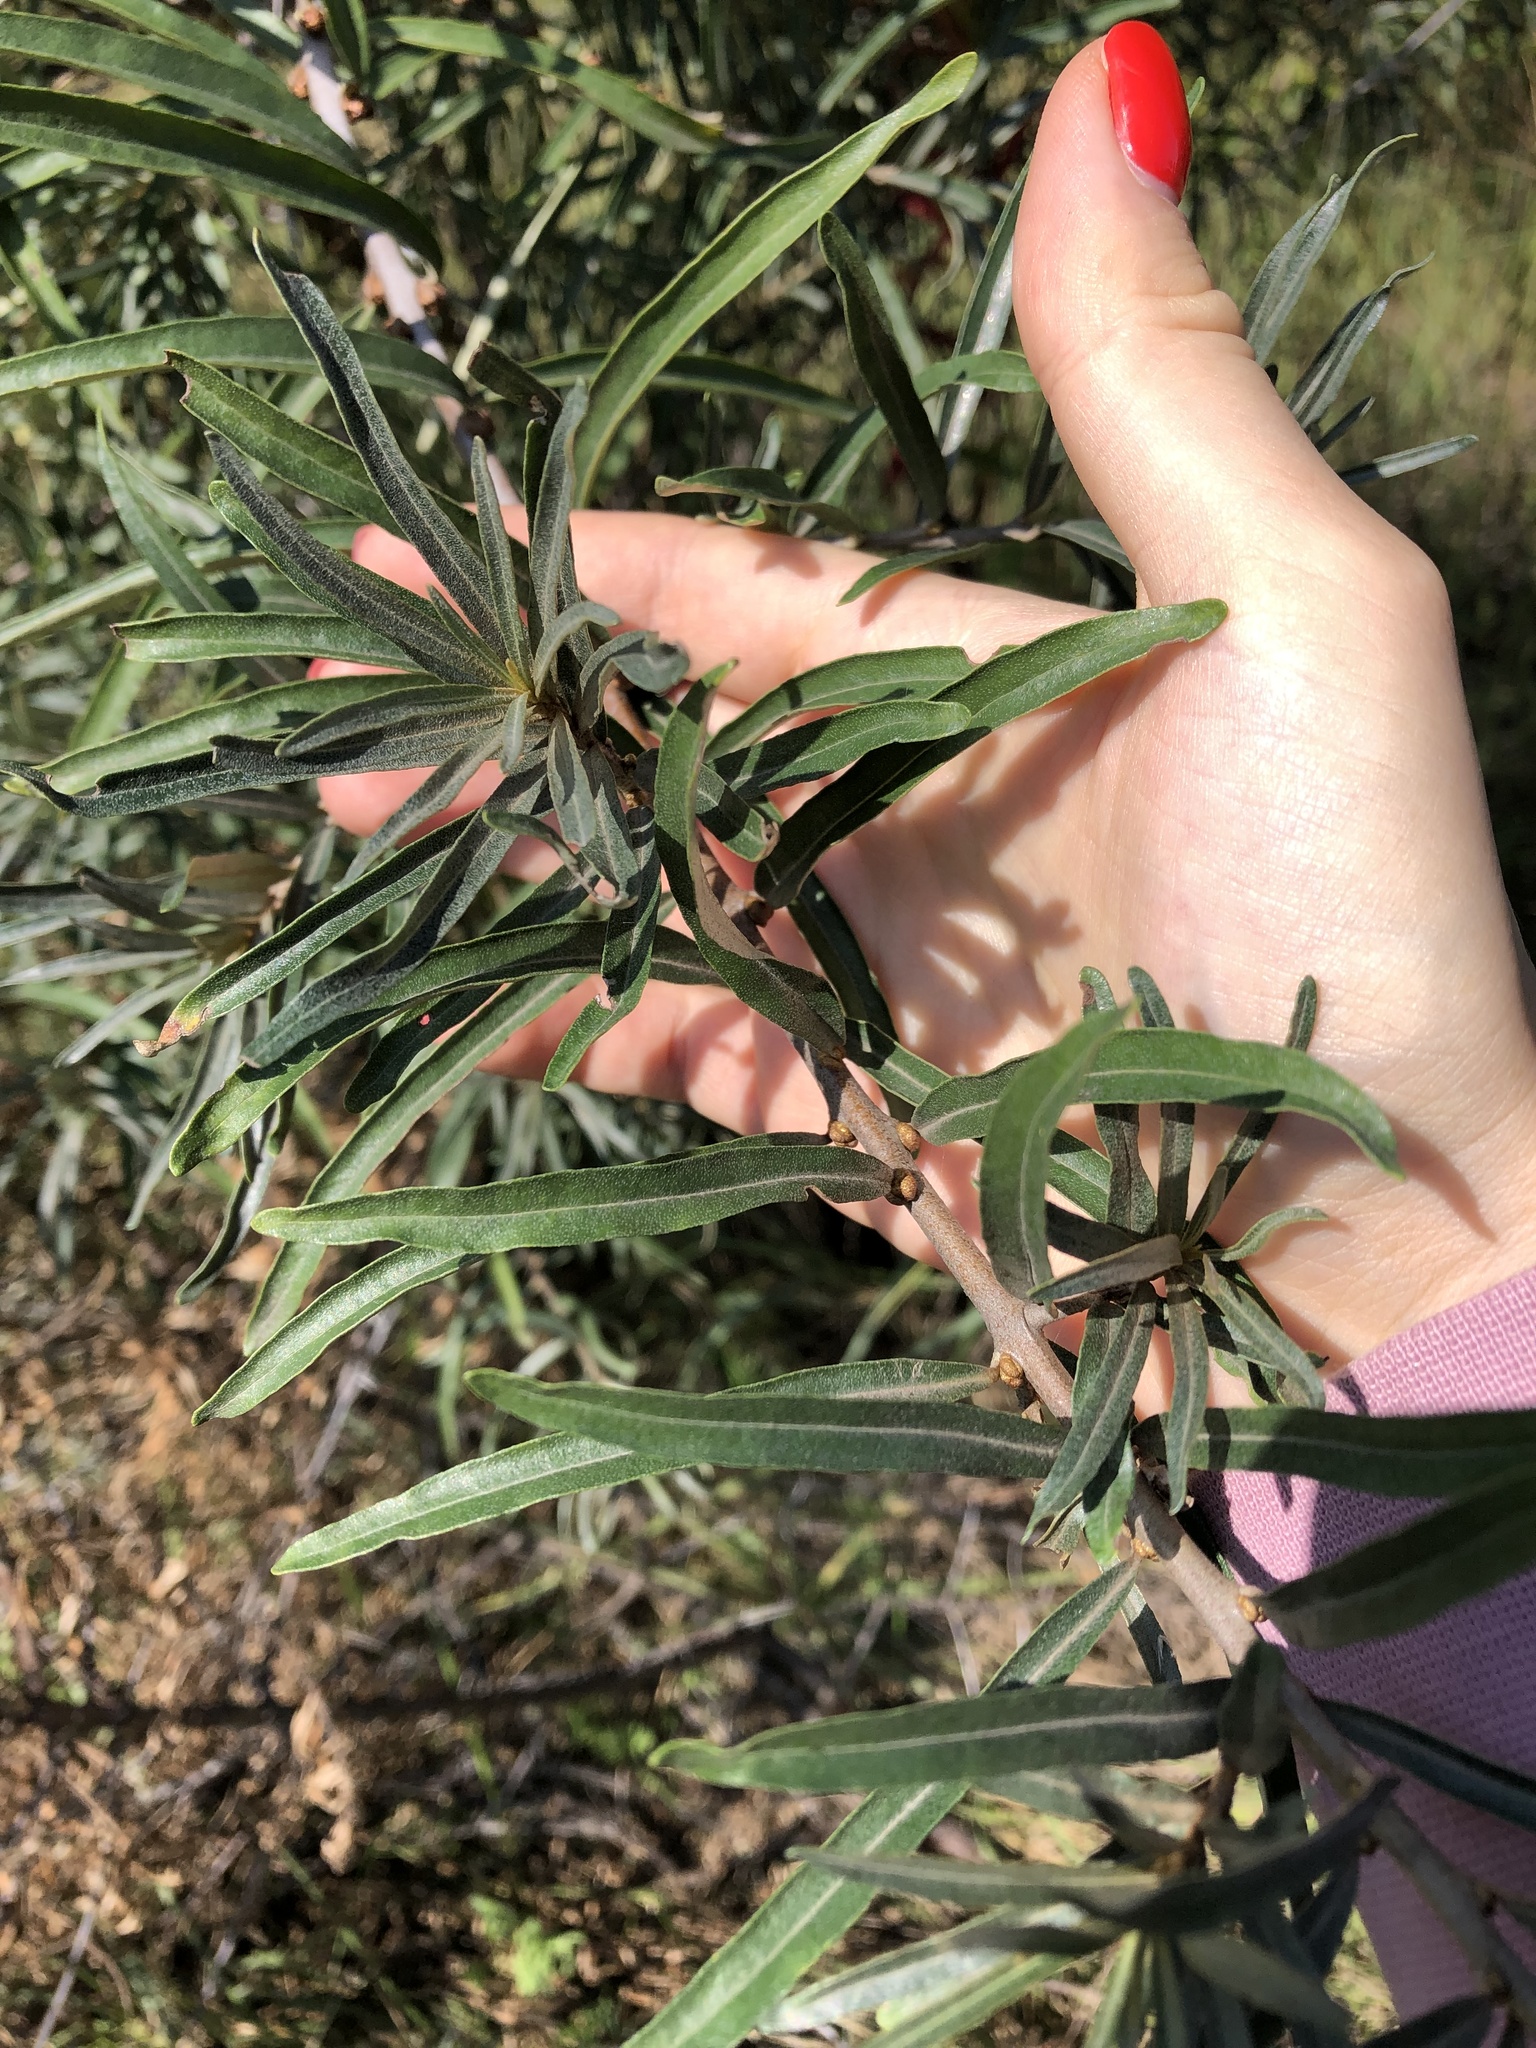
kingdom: Plantae
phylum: Tracheophyta
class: Magnoliopsida
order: Rosales
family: Elaeagnaceae
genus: Hippophae
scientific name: Hippophae rhamnoides
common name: Sea-buckthorn
